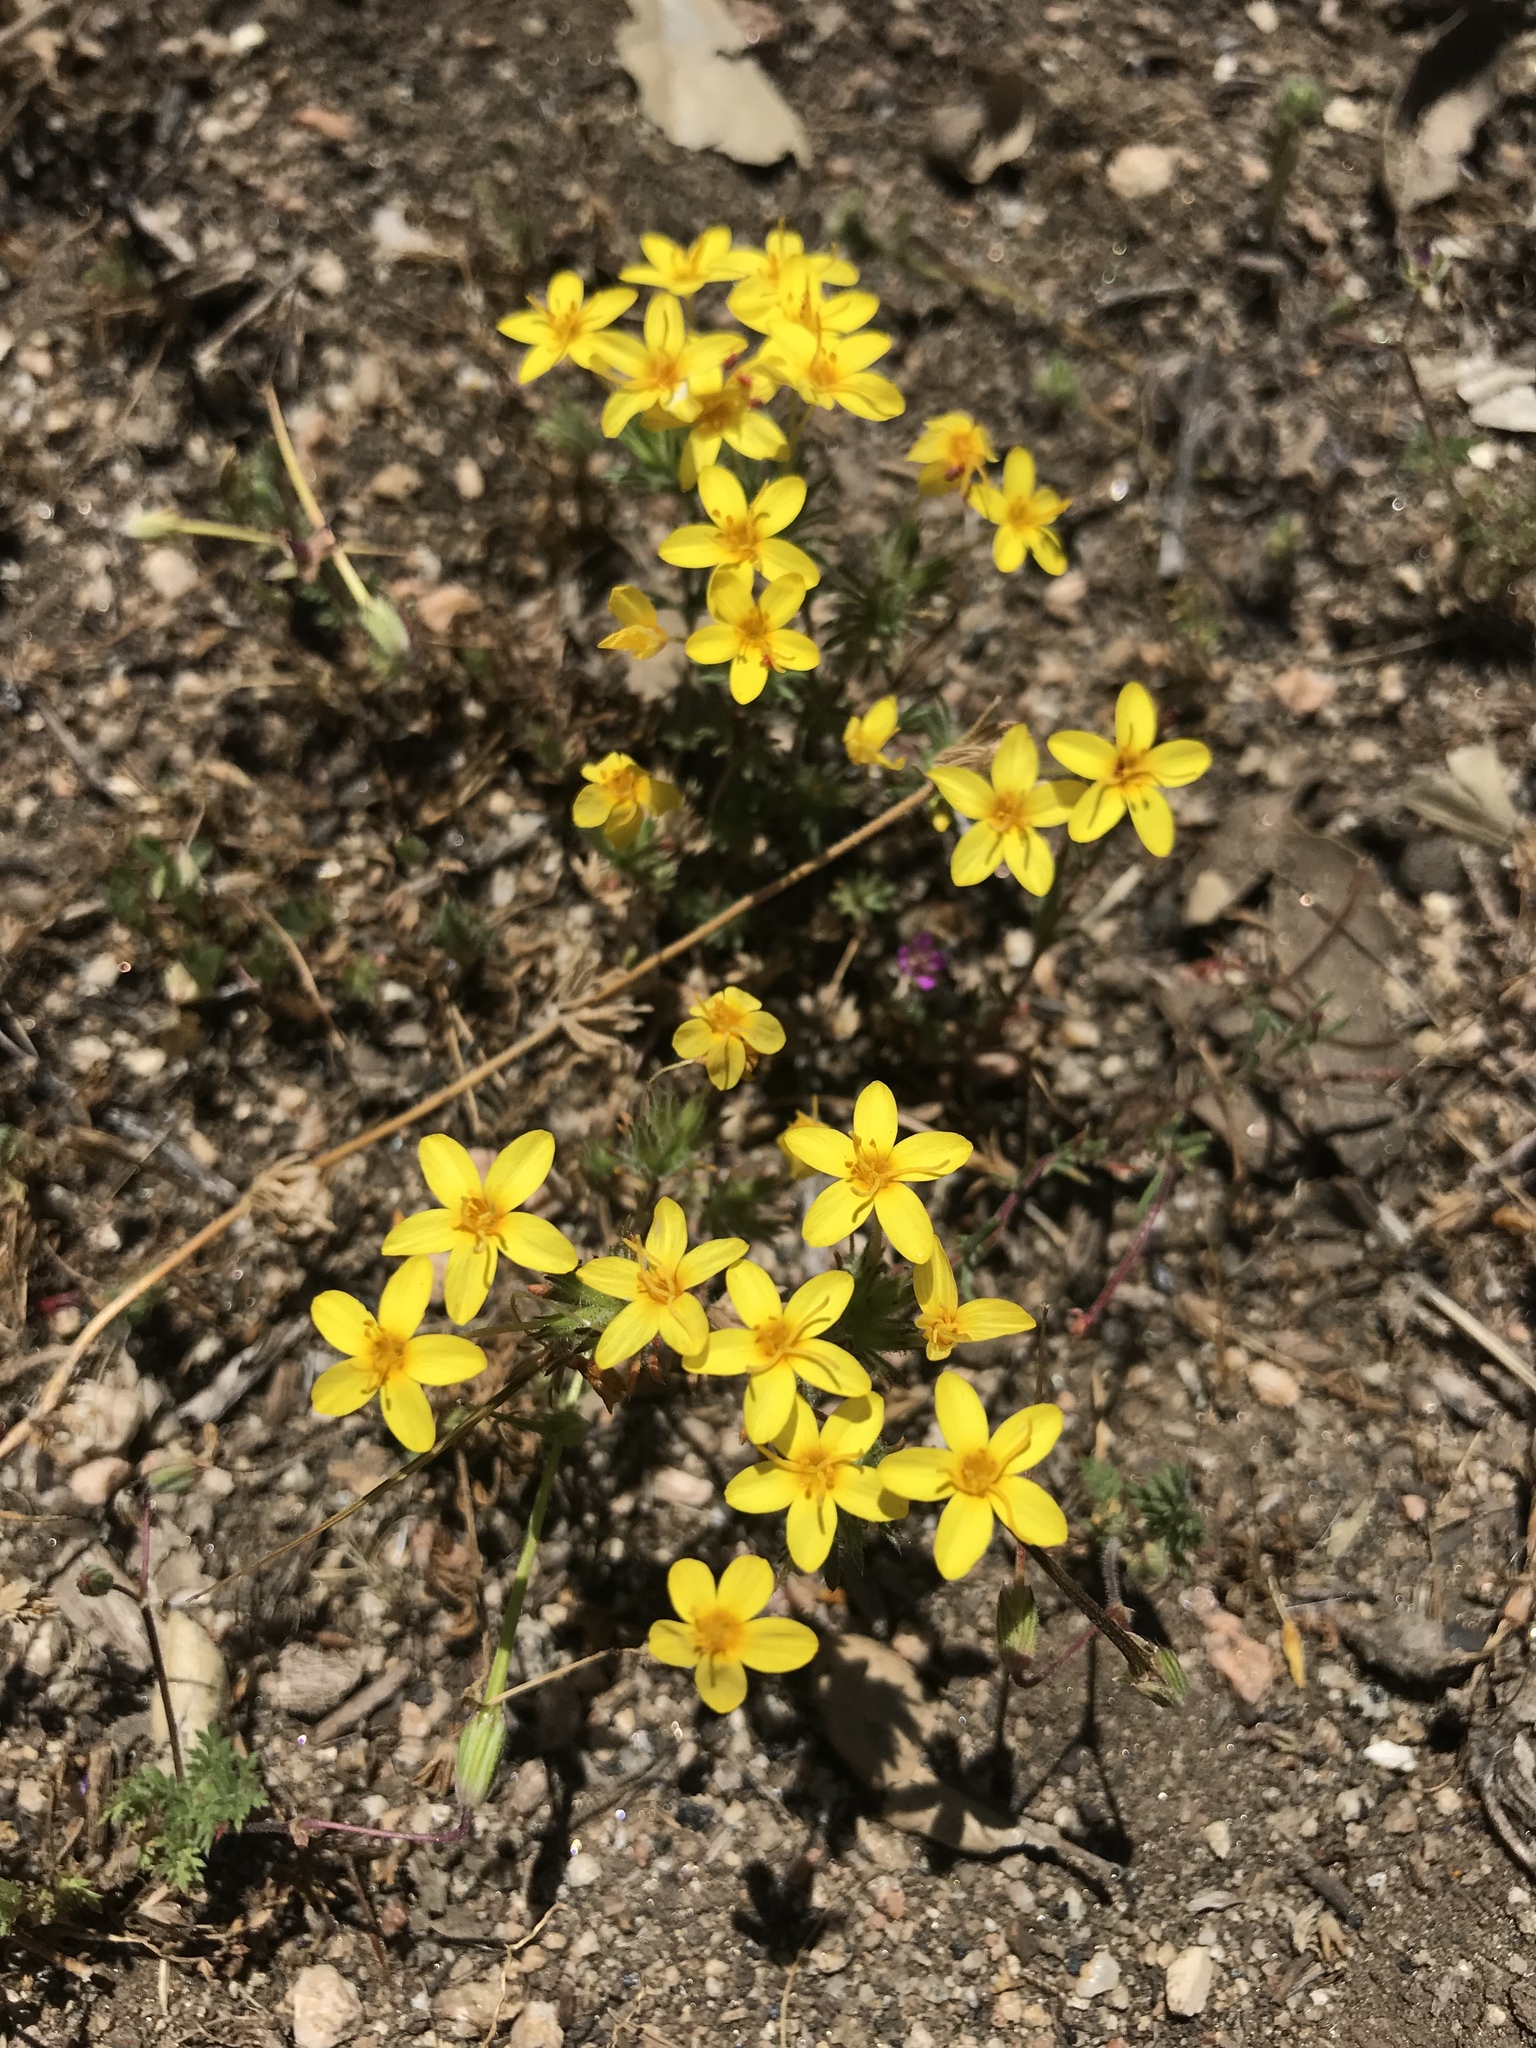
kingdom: Plantae
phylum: Tracheophyta
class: Magnoliopsida
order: Ericales
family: Polemoniaceae
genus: Leptosiphon
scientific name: Leptosiphon parviflorus
